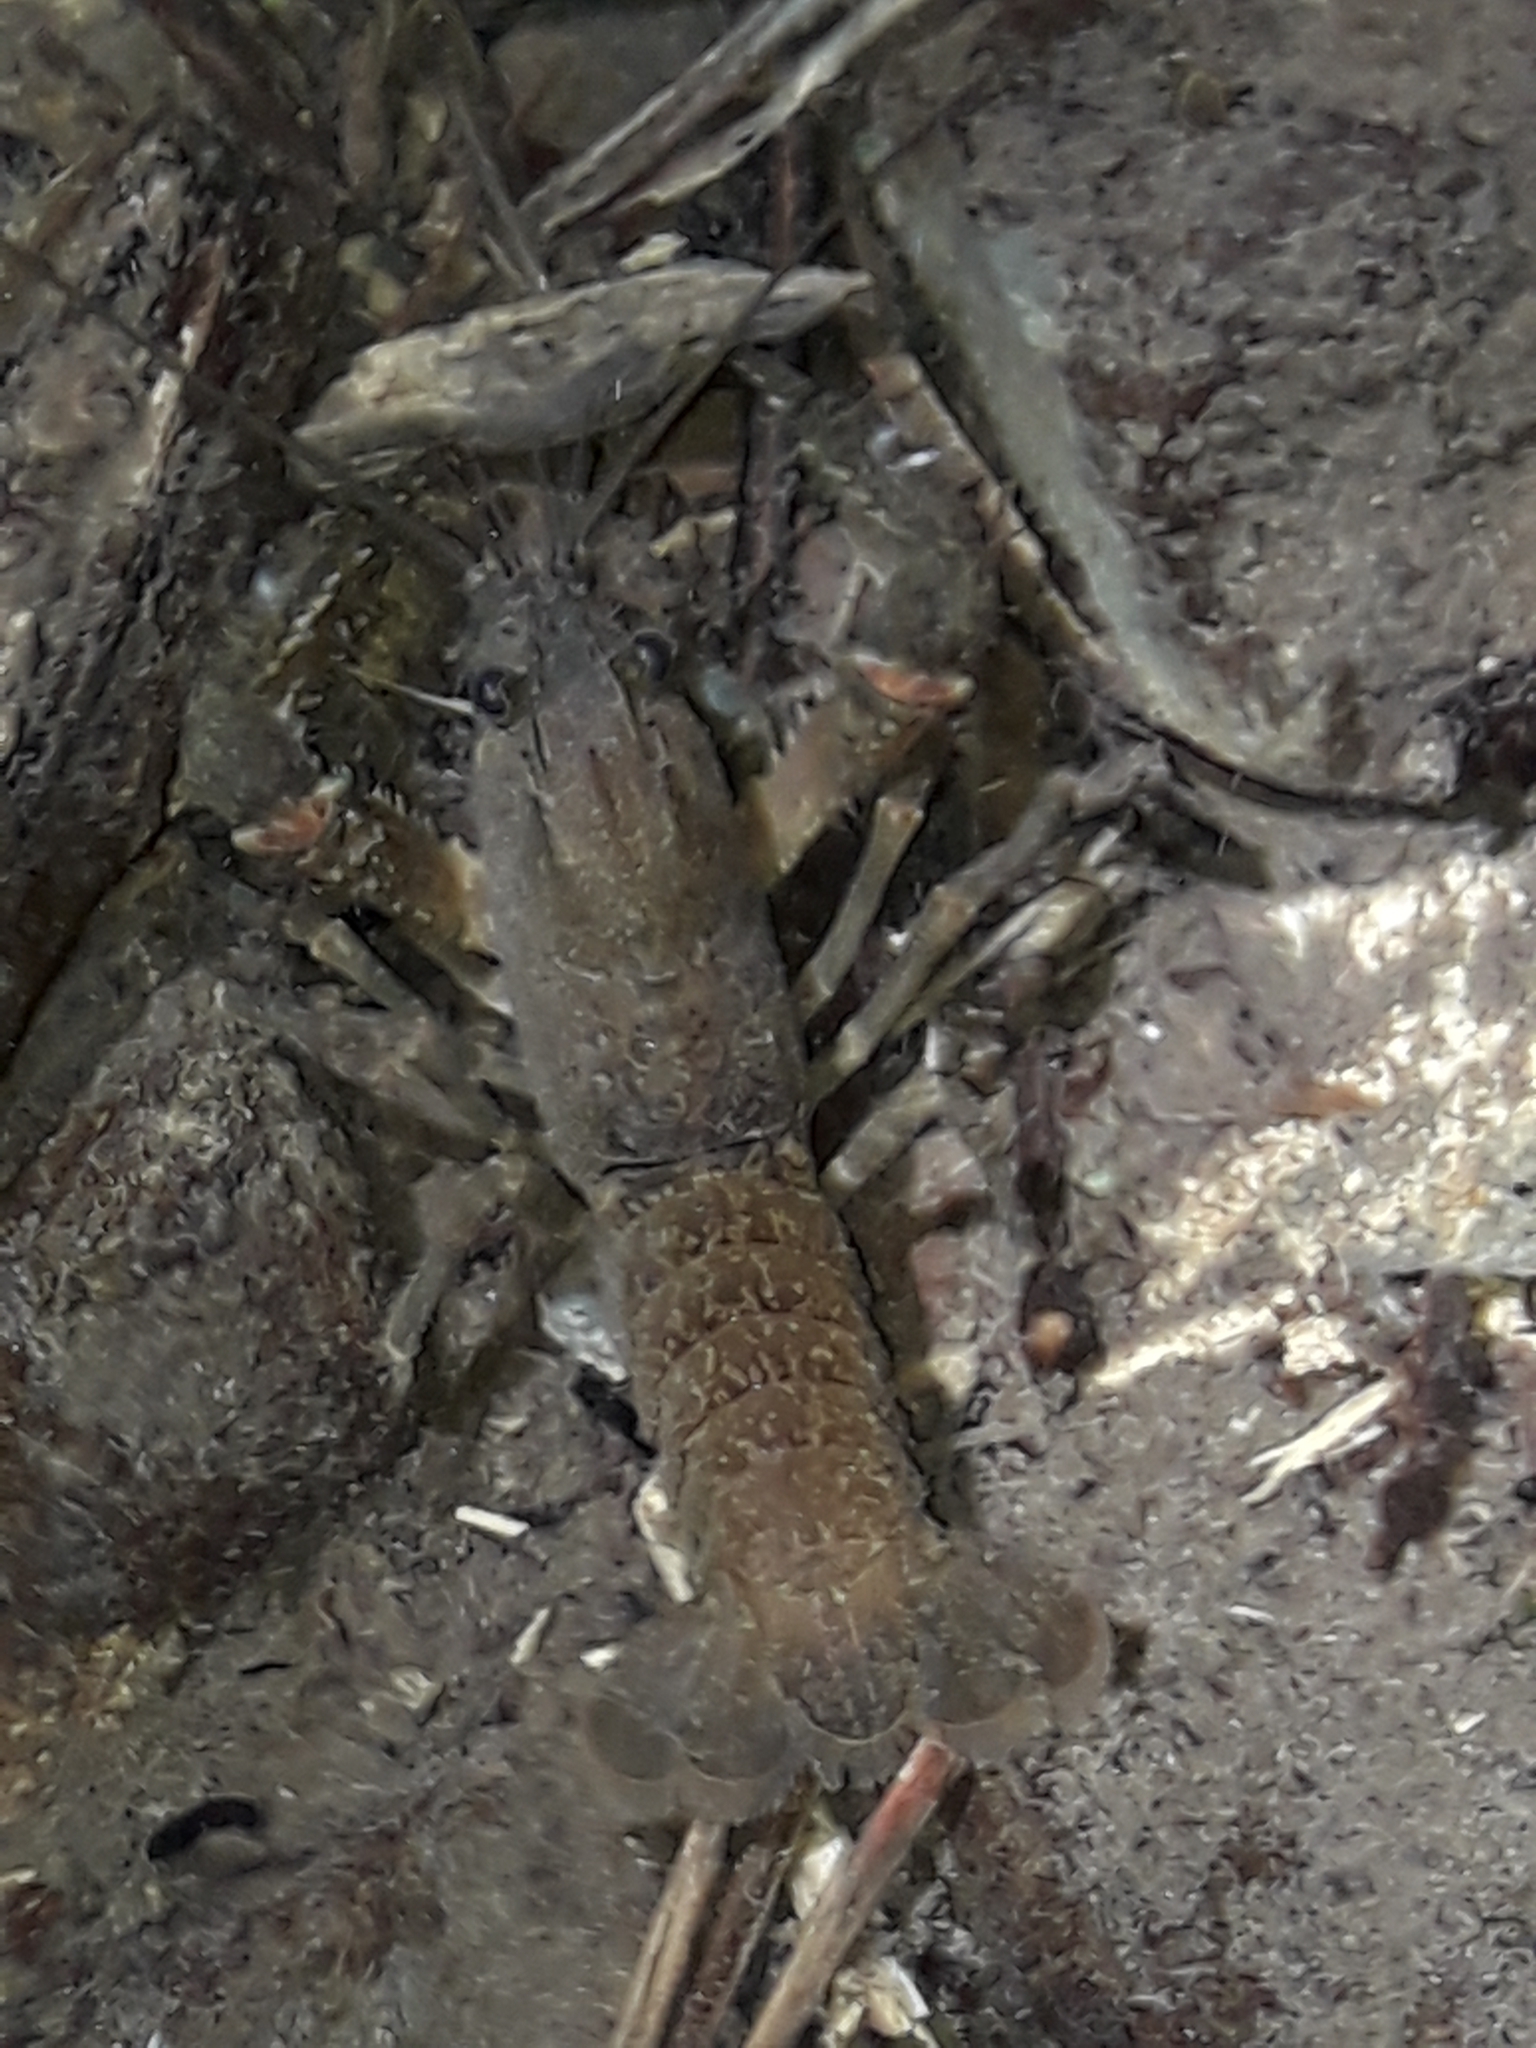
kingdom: Animalia
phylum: Arthropoda
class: Malacostraca
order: Decapoda
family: Parastacidae
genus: Paranephrops
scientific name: Paranephrops planifrons
